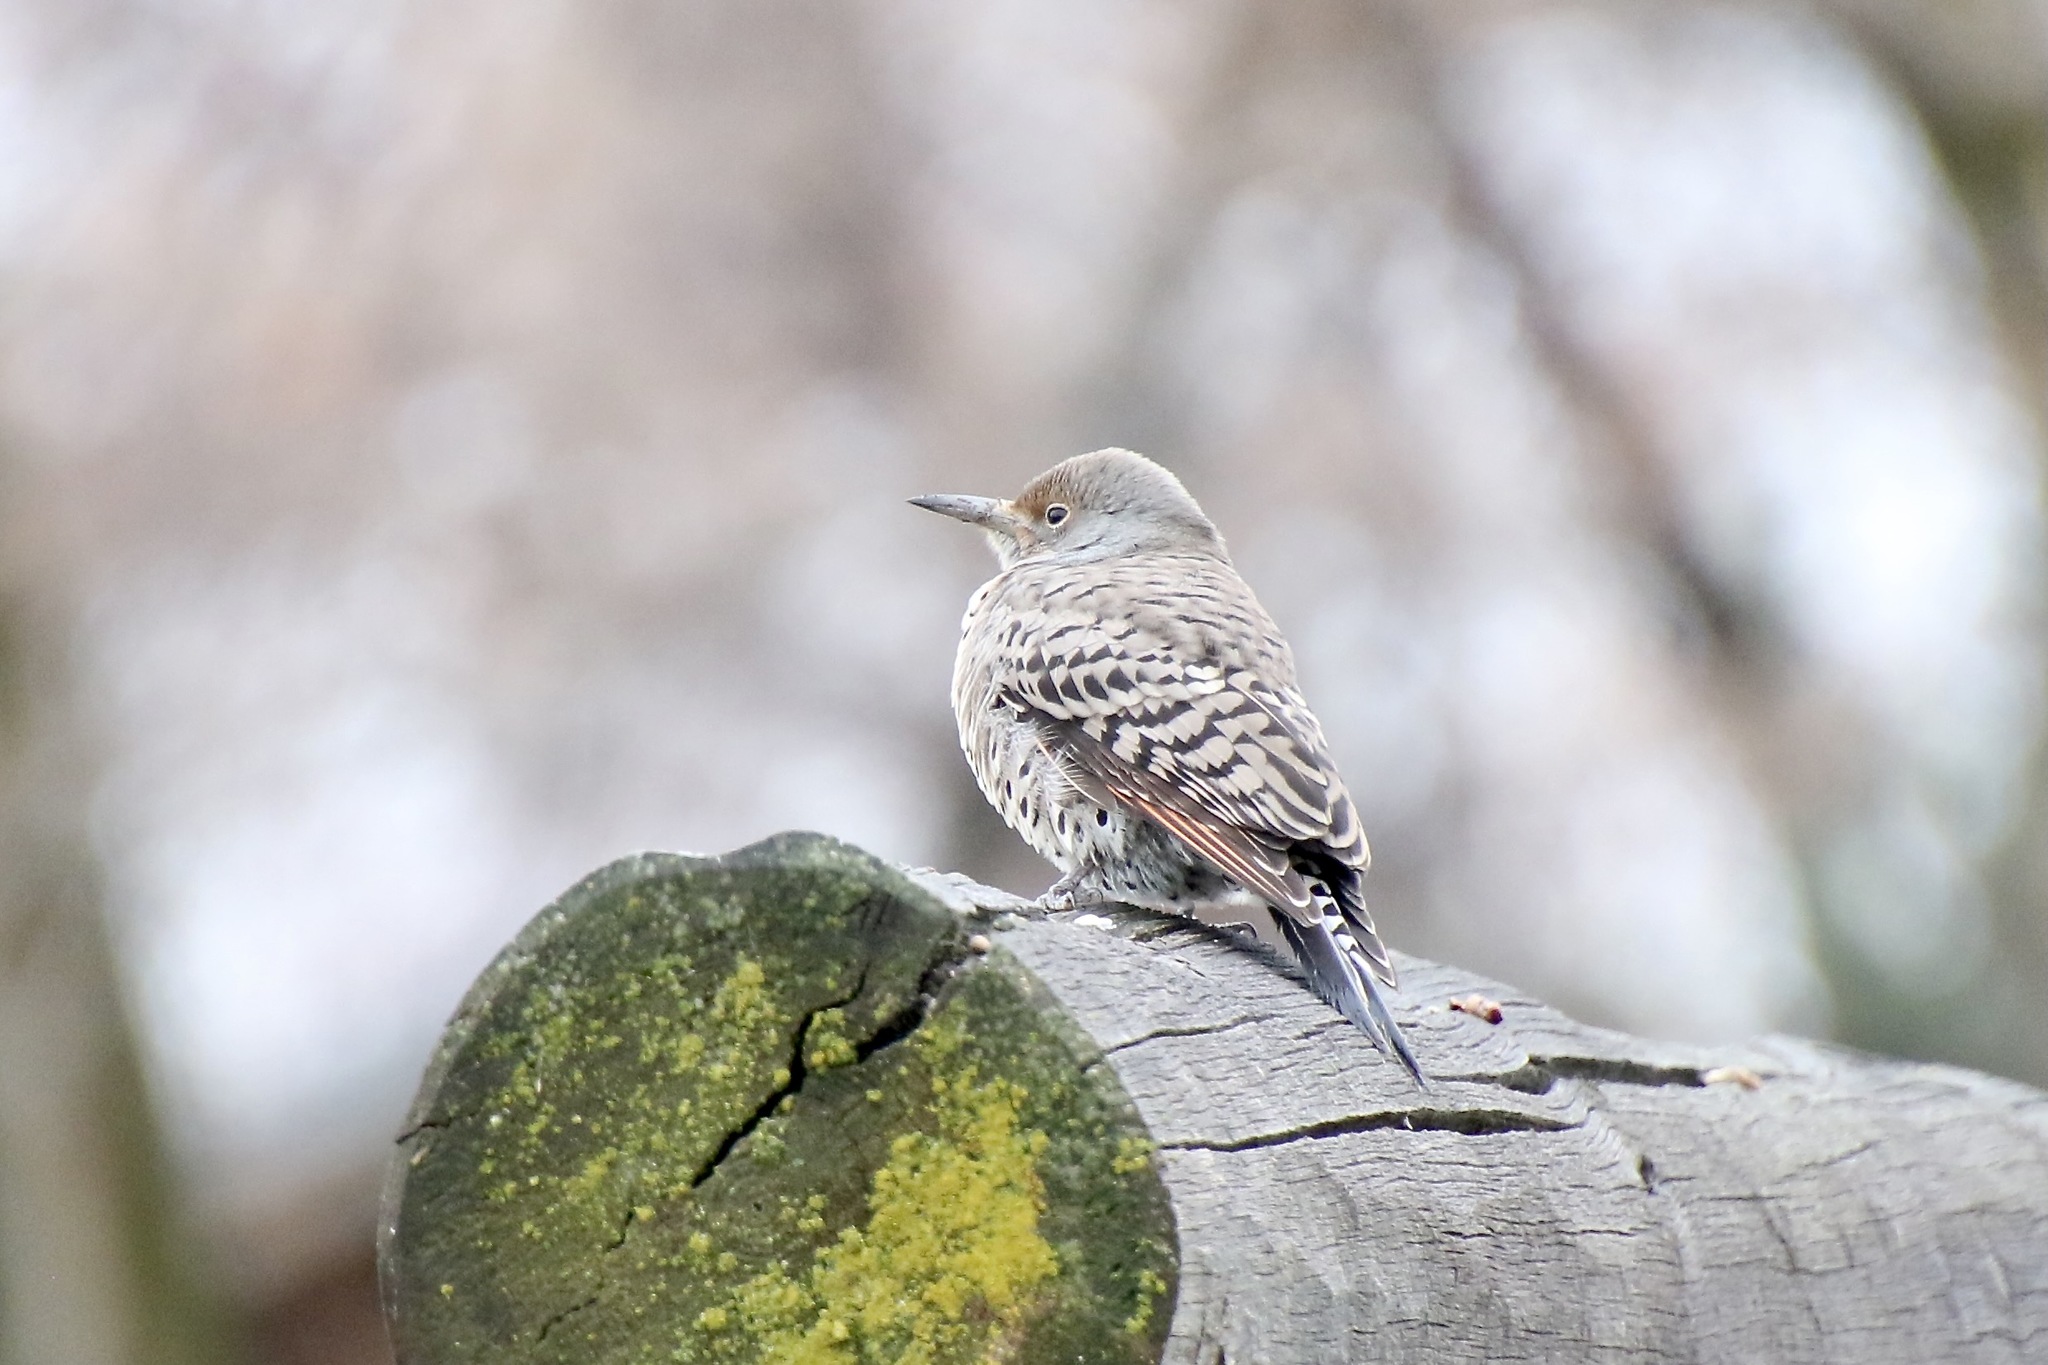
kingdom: Animalia
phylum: Chordata
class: Aves
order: Piciformes
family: Picidae
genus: Colaptes
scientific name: Colaptes auratus
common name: Northern flicker
